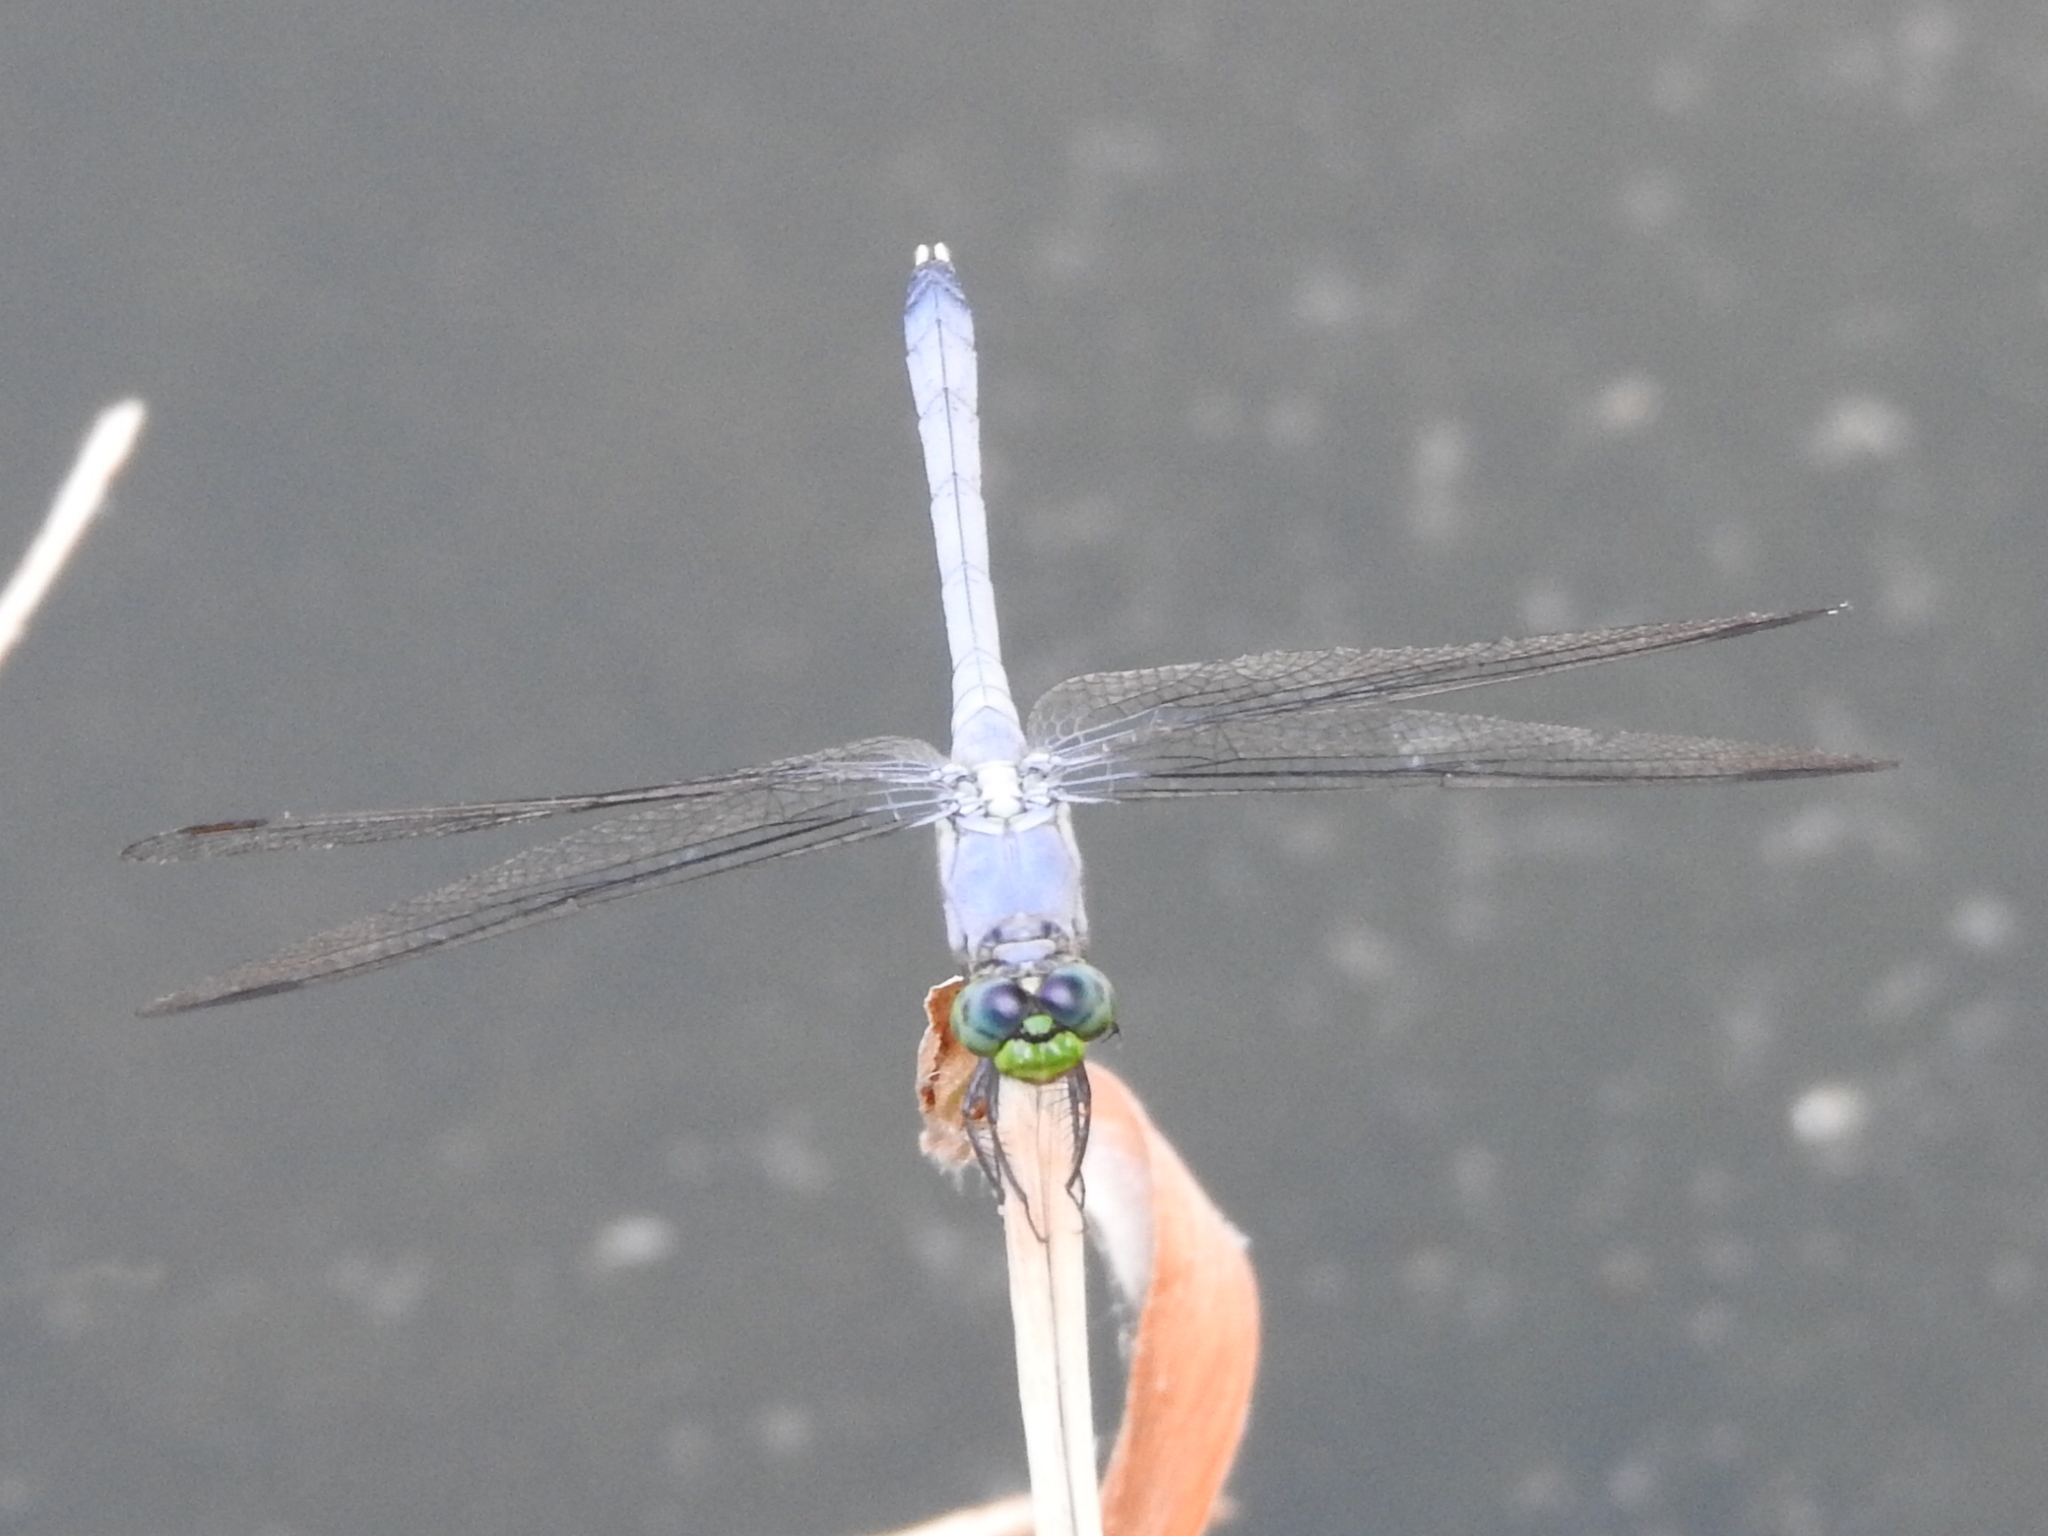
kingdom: Animalia
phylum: Arthropoda
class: Insecta
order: Odonata
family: Libellulidae
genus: Erythemis
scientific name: Erythemis simplicicollis
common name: Eastern pondhawk
